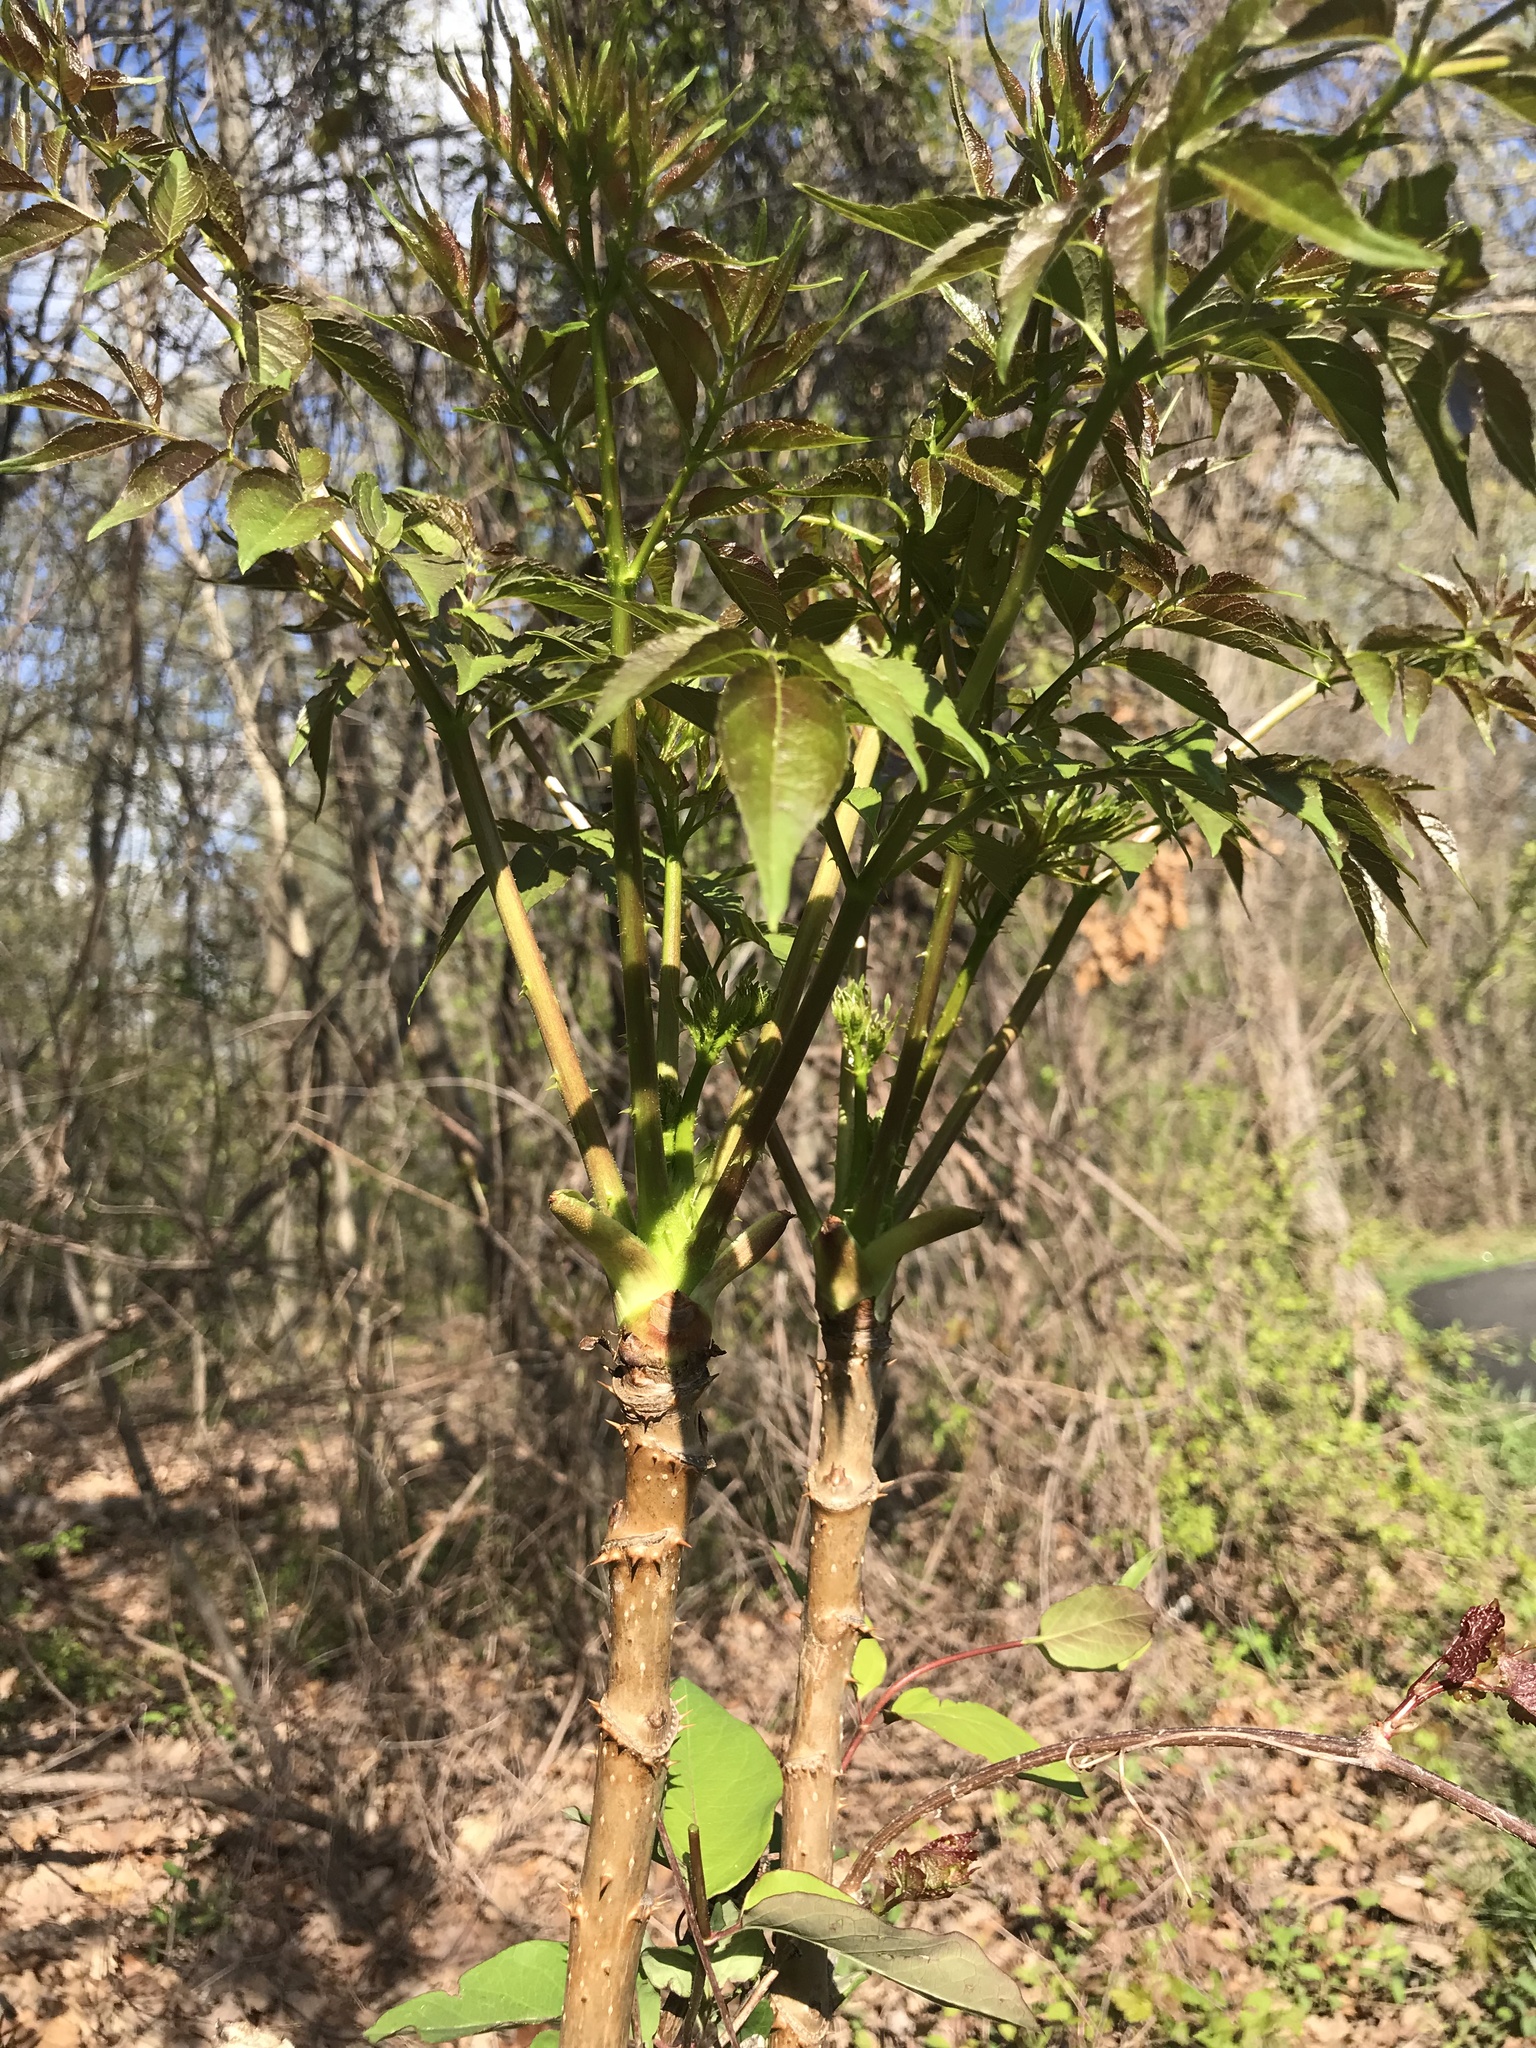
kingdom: Plantae
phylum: Tracheophyta
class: Magnoliopsida
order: Apiales
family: Araliaceae
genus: Aralia
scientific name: Aralia spinosa
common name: Hercules'-club
